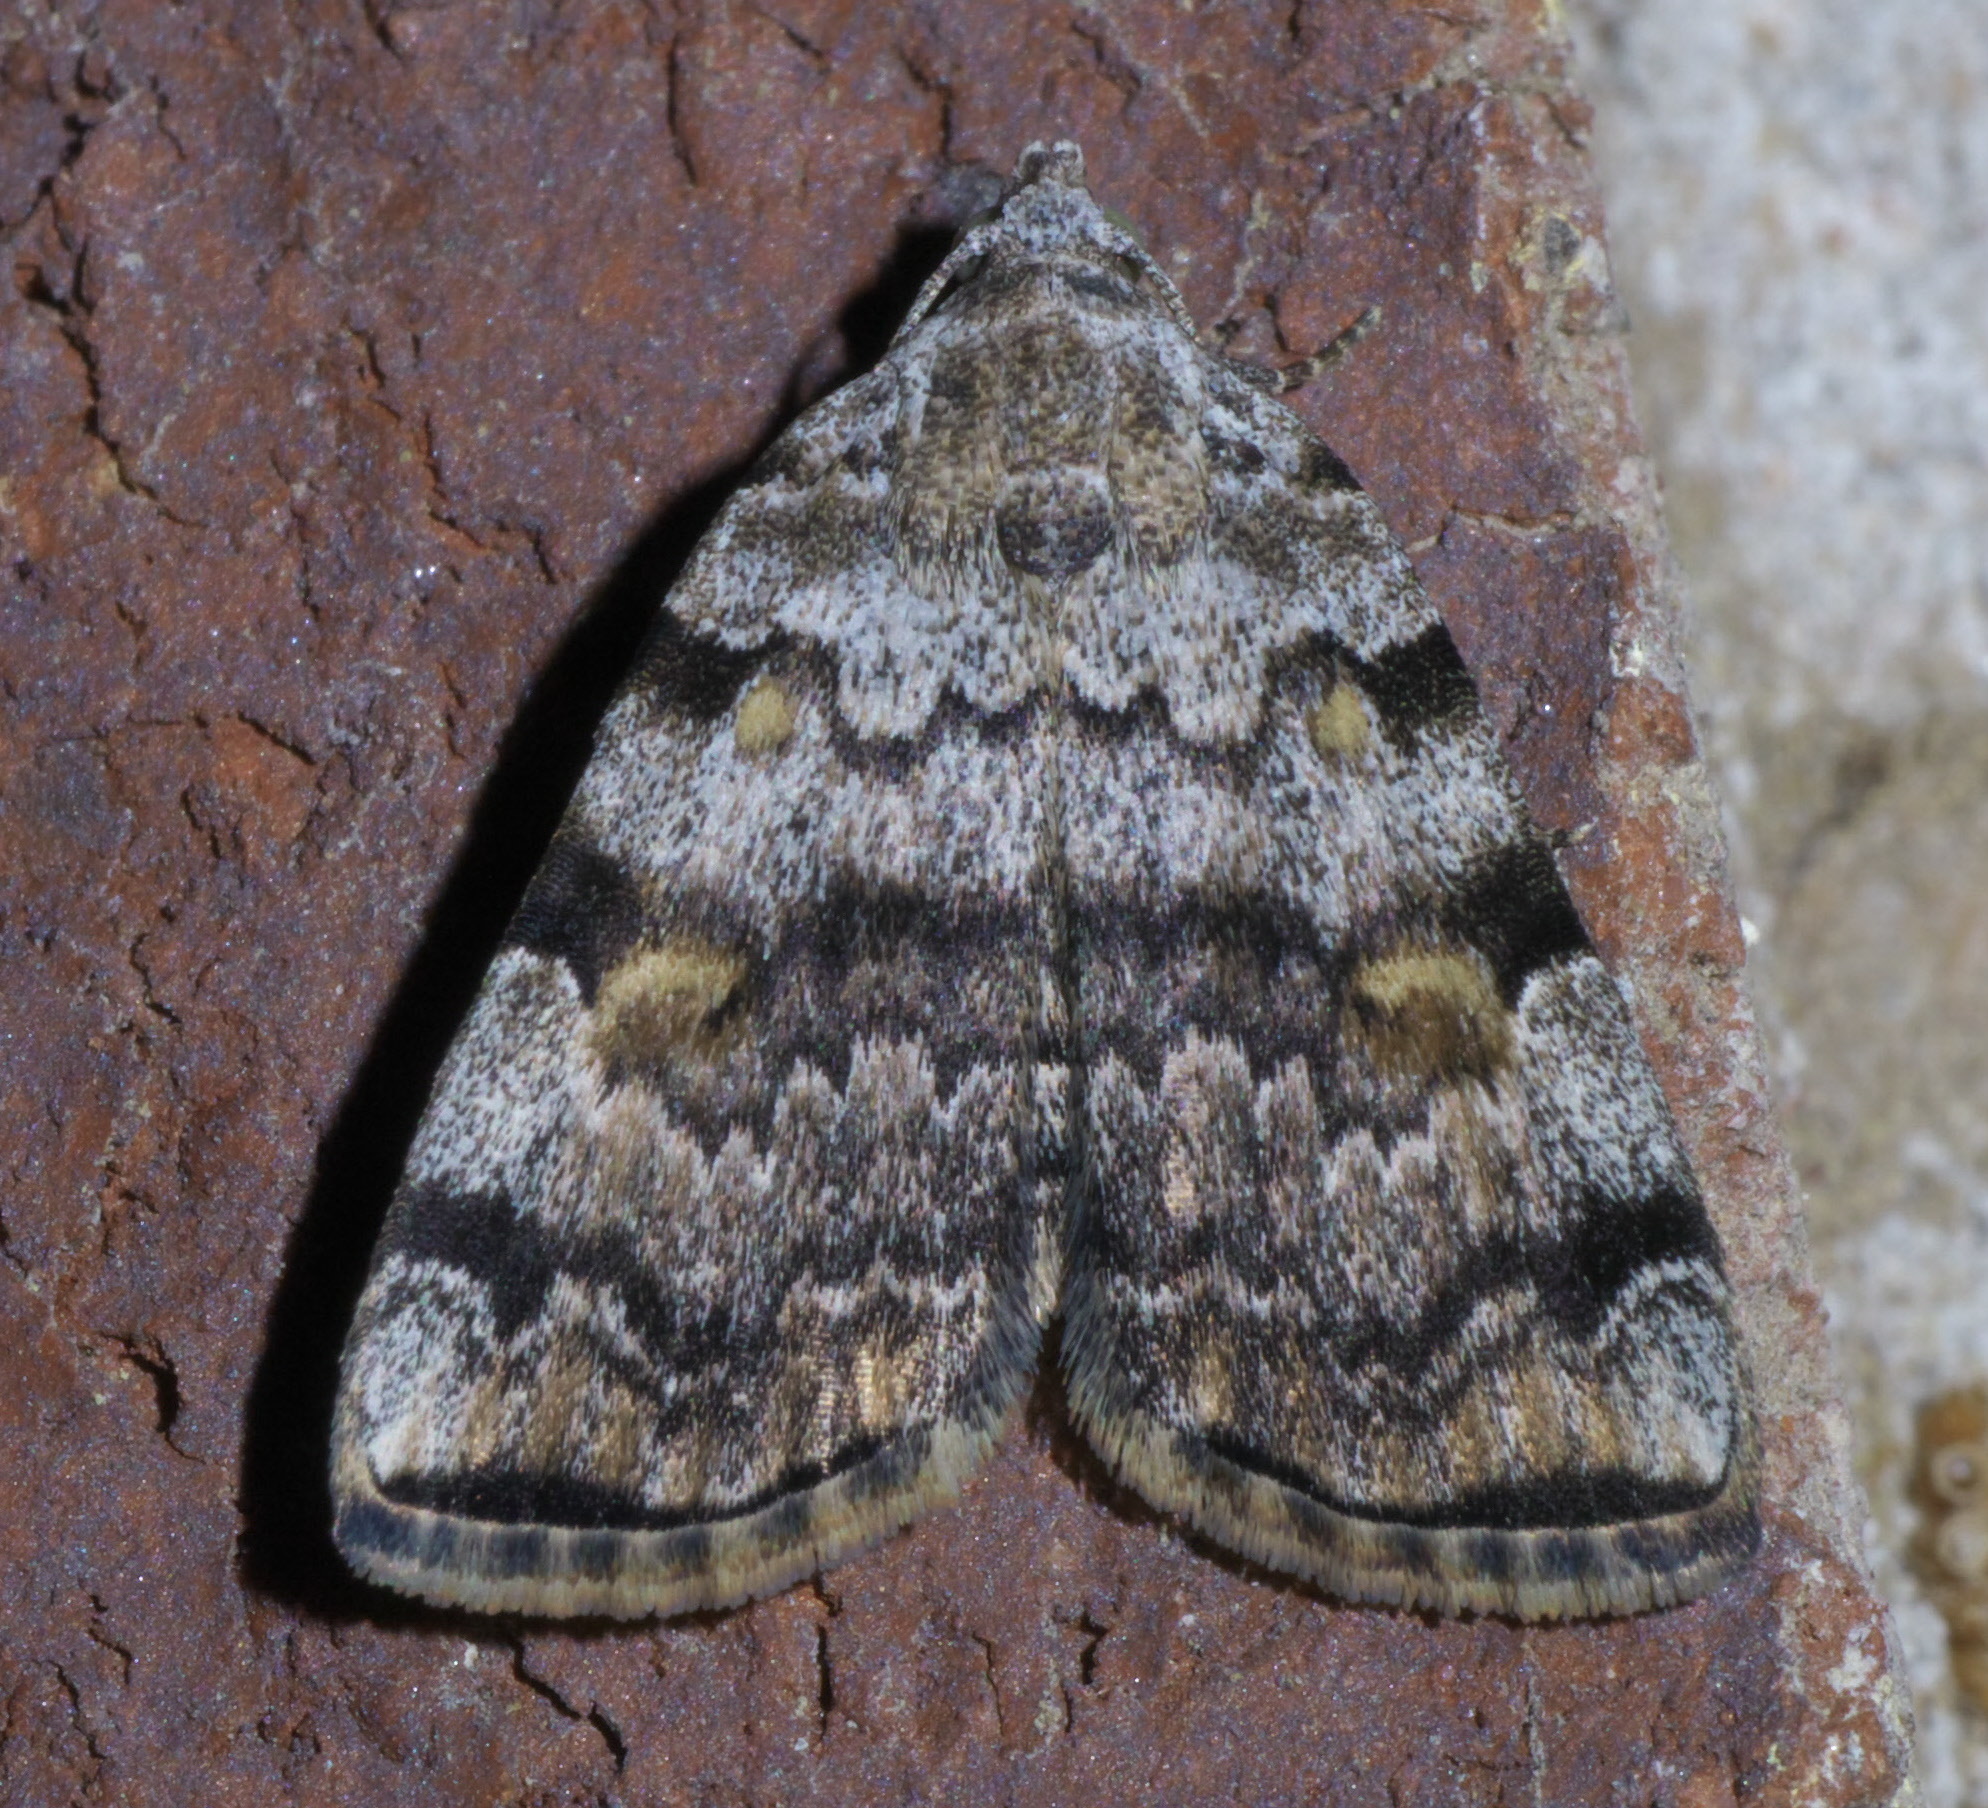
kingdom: Animalia
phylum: Arthropoda
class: Insecta
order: Lepidoptera
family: Erebidae
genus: Idia
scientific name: Idia americalis
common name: American idia moth
